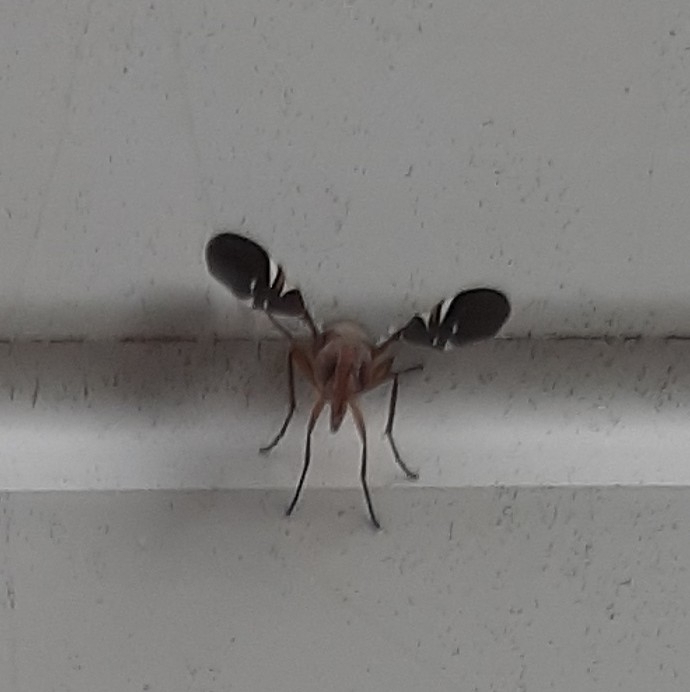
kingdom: Animalia
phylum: Arthropoda
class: Insecta
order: Diptera
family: Ulidiidae
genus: Delphinia
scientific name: Delphinia picta
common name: Common picture-winged fly
